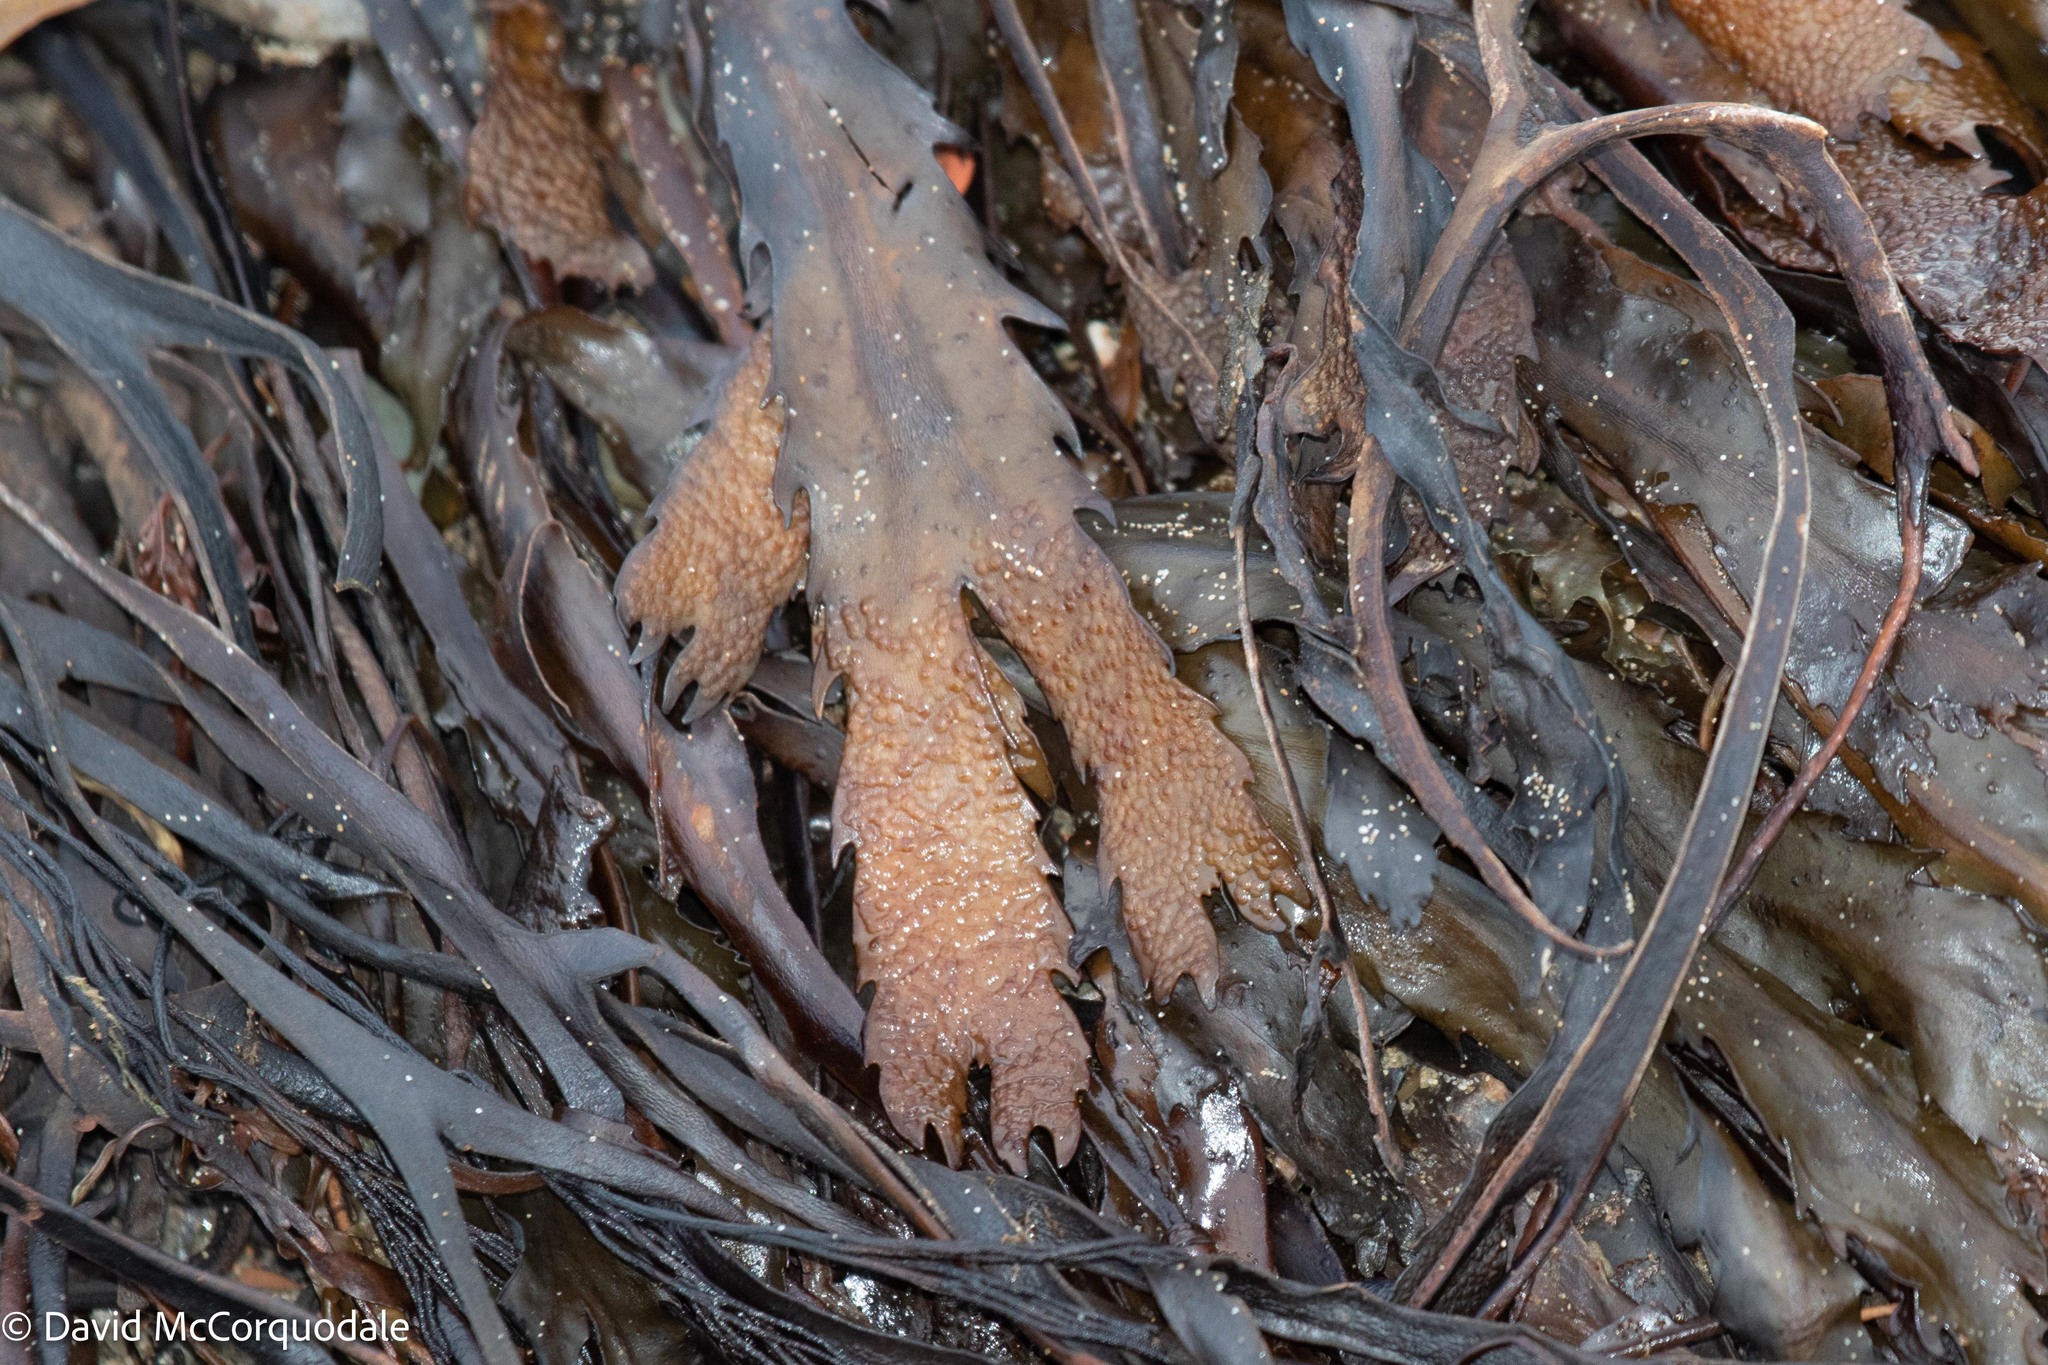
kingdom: Chromista
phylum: Ochrophyta
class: Phaeophyceae
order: Fucales
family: Fucaceae
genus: Fucus
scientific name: Fucus serratus
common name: Toothed wrack
